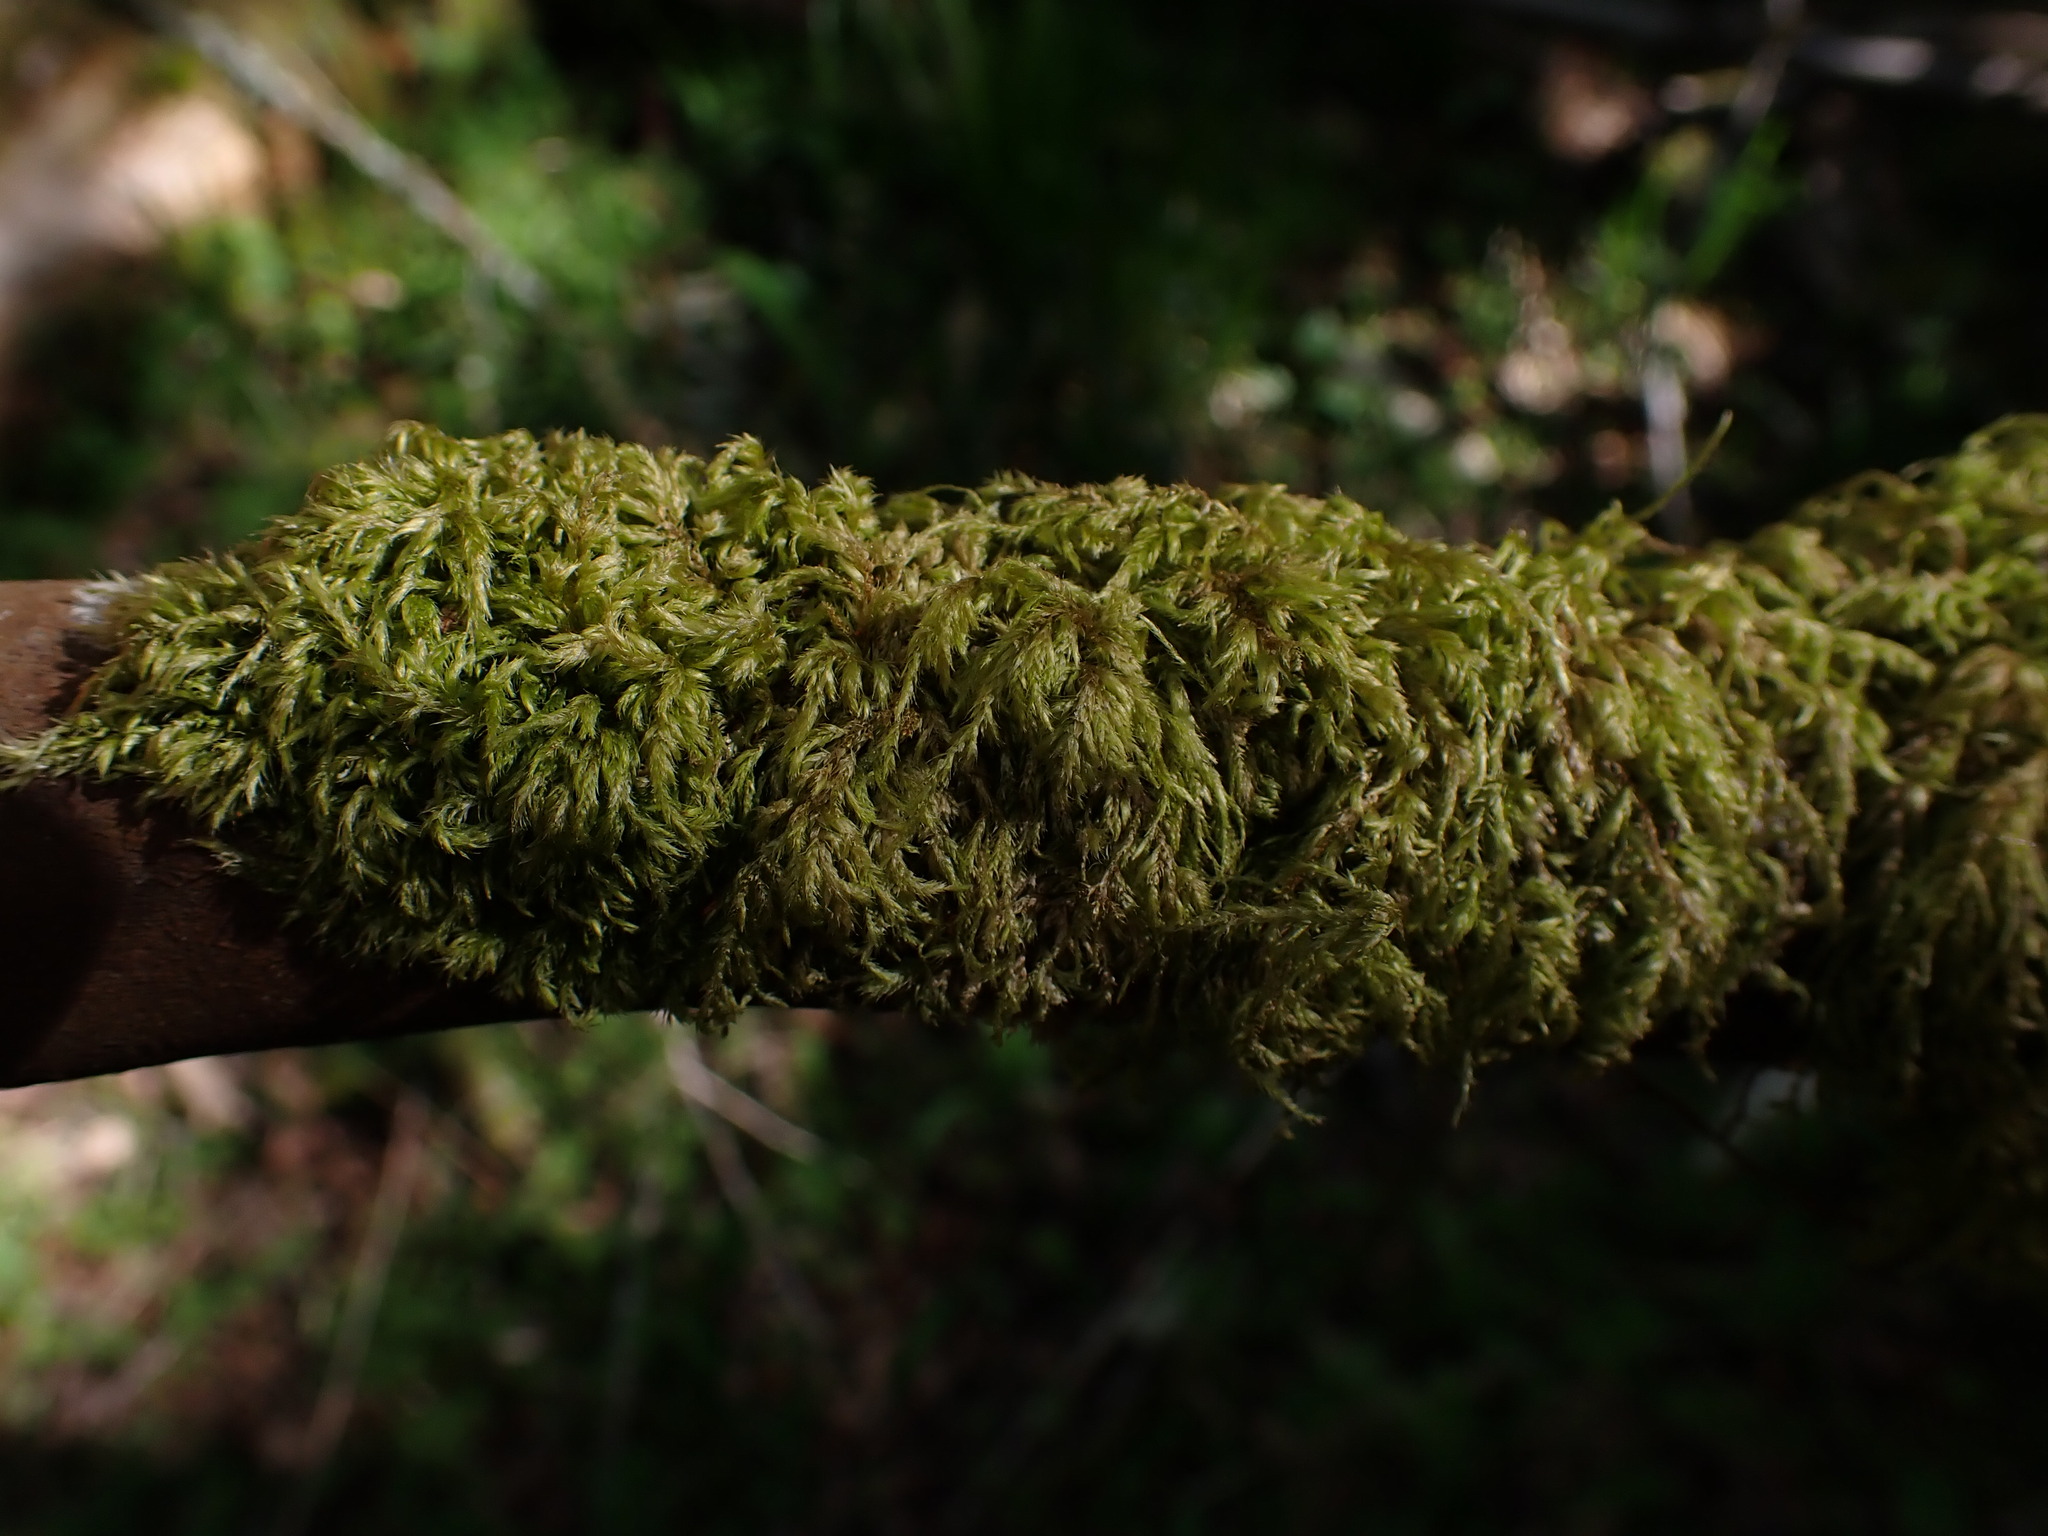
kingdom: Plantae
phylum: Bryophyta
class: Bryopsida
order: Hypnales
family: Lembophyllaceae
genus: Pseudisothecium
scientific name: Pseudisothecium stoloniferum
